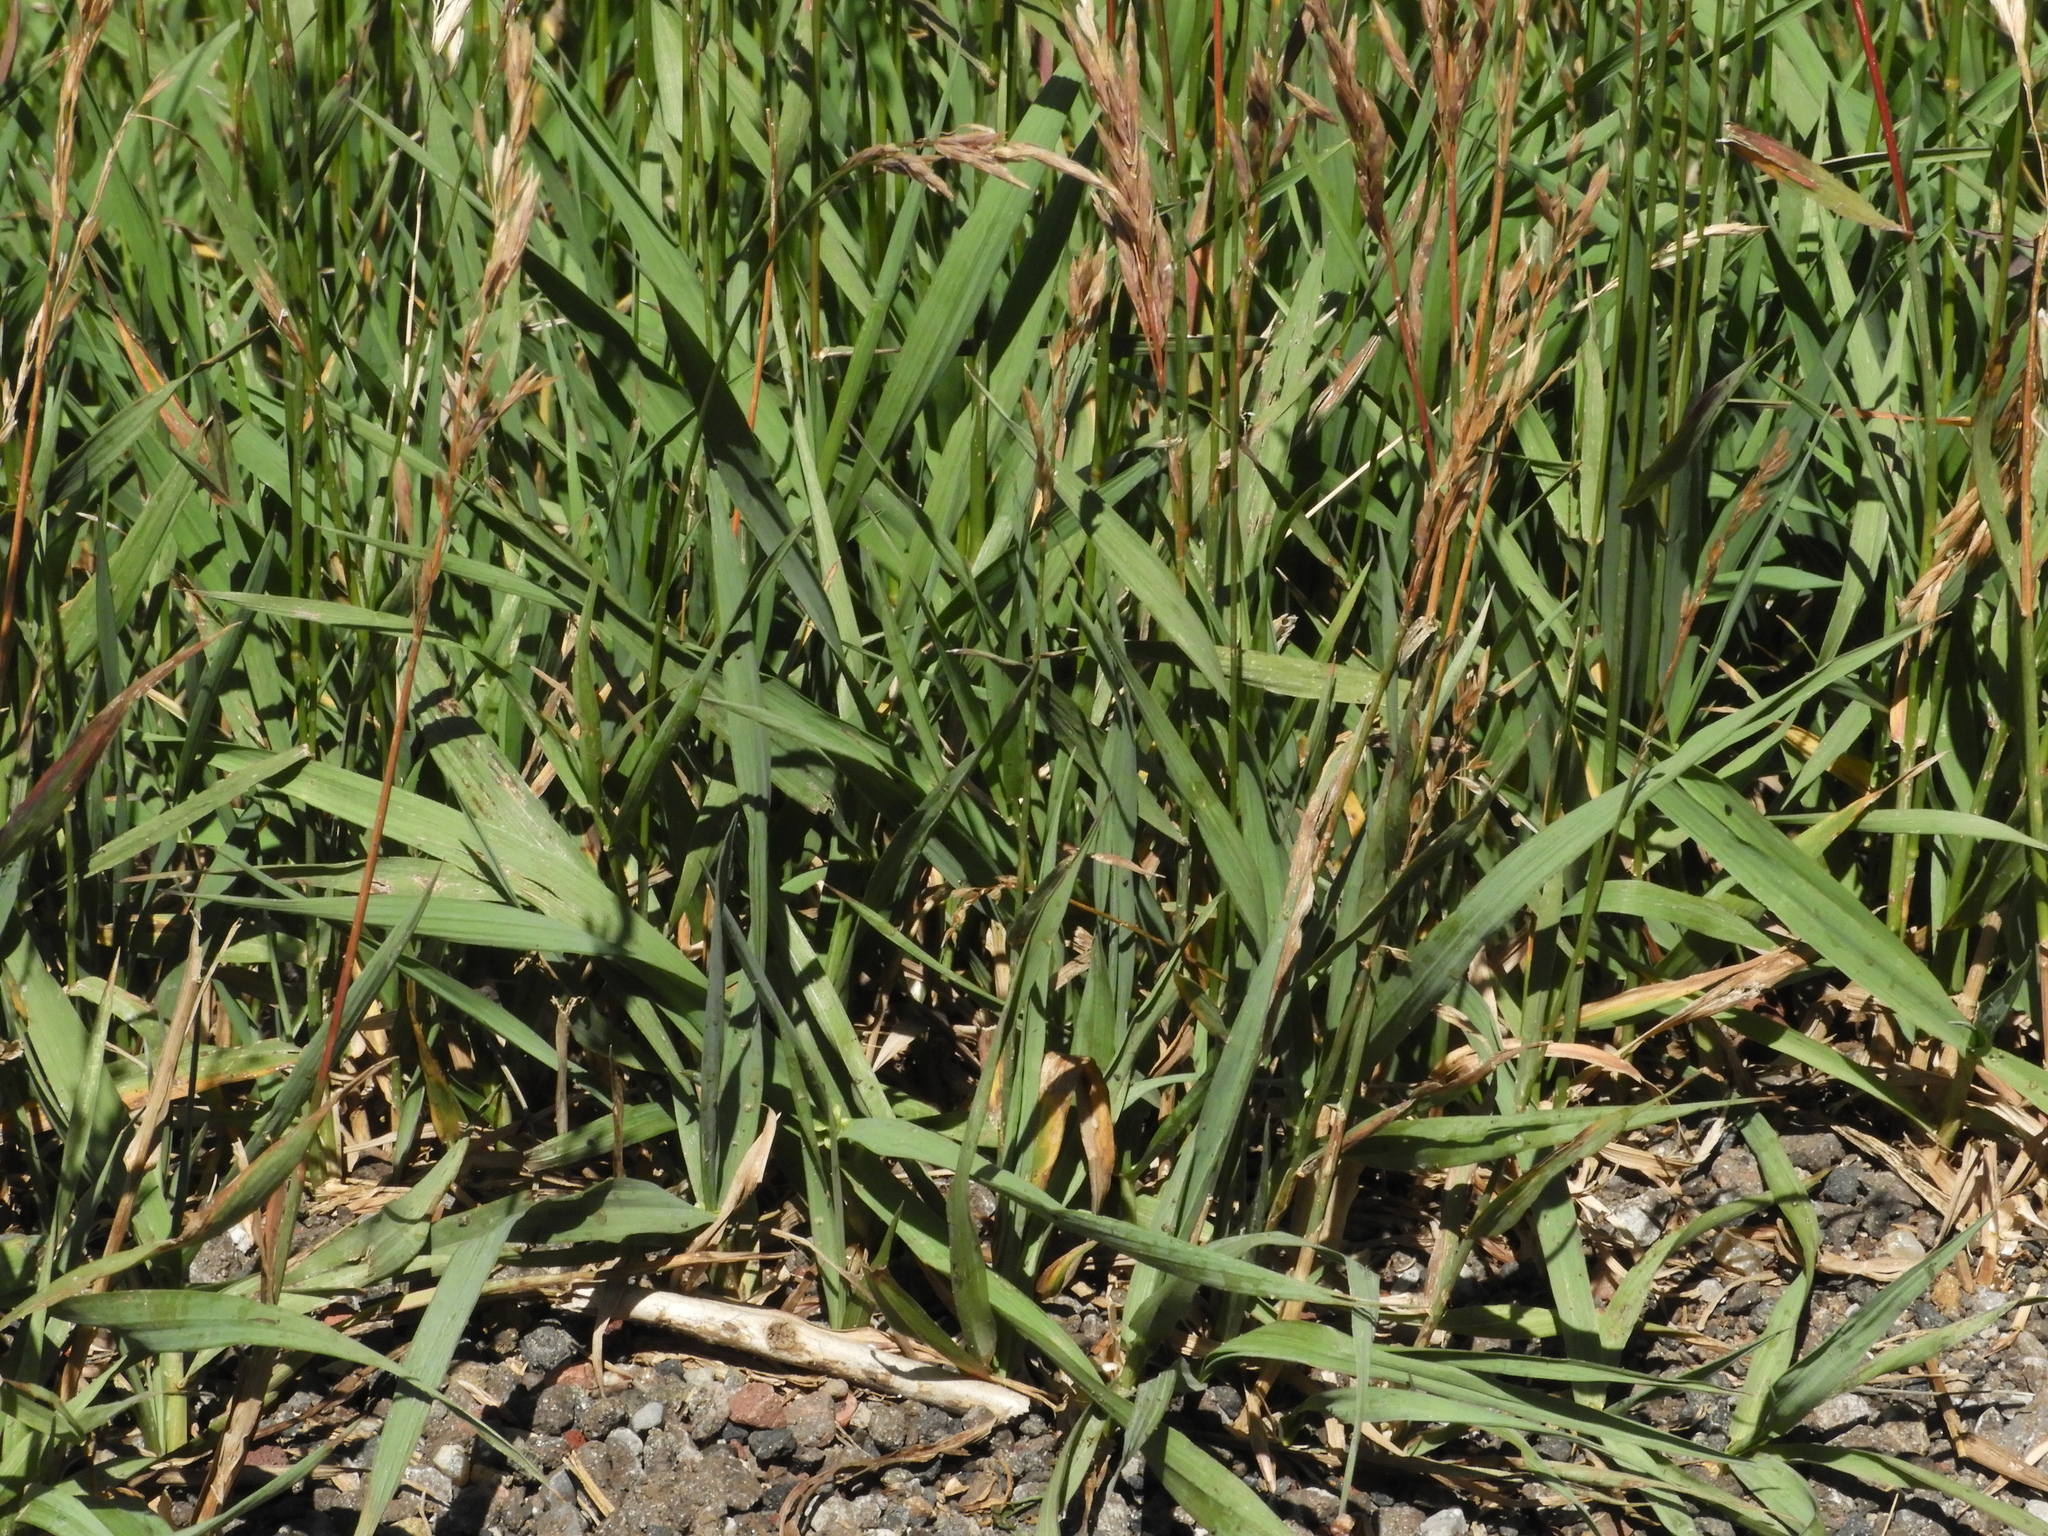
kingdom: Plantae
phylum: Tracheophyta
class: Liliopsida
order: Poales
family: Poaceae
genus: Bromus
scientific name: Bromus inermis
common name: Smooth brome
